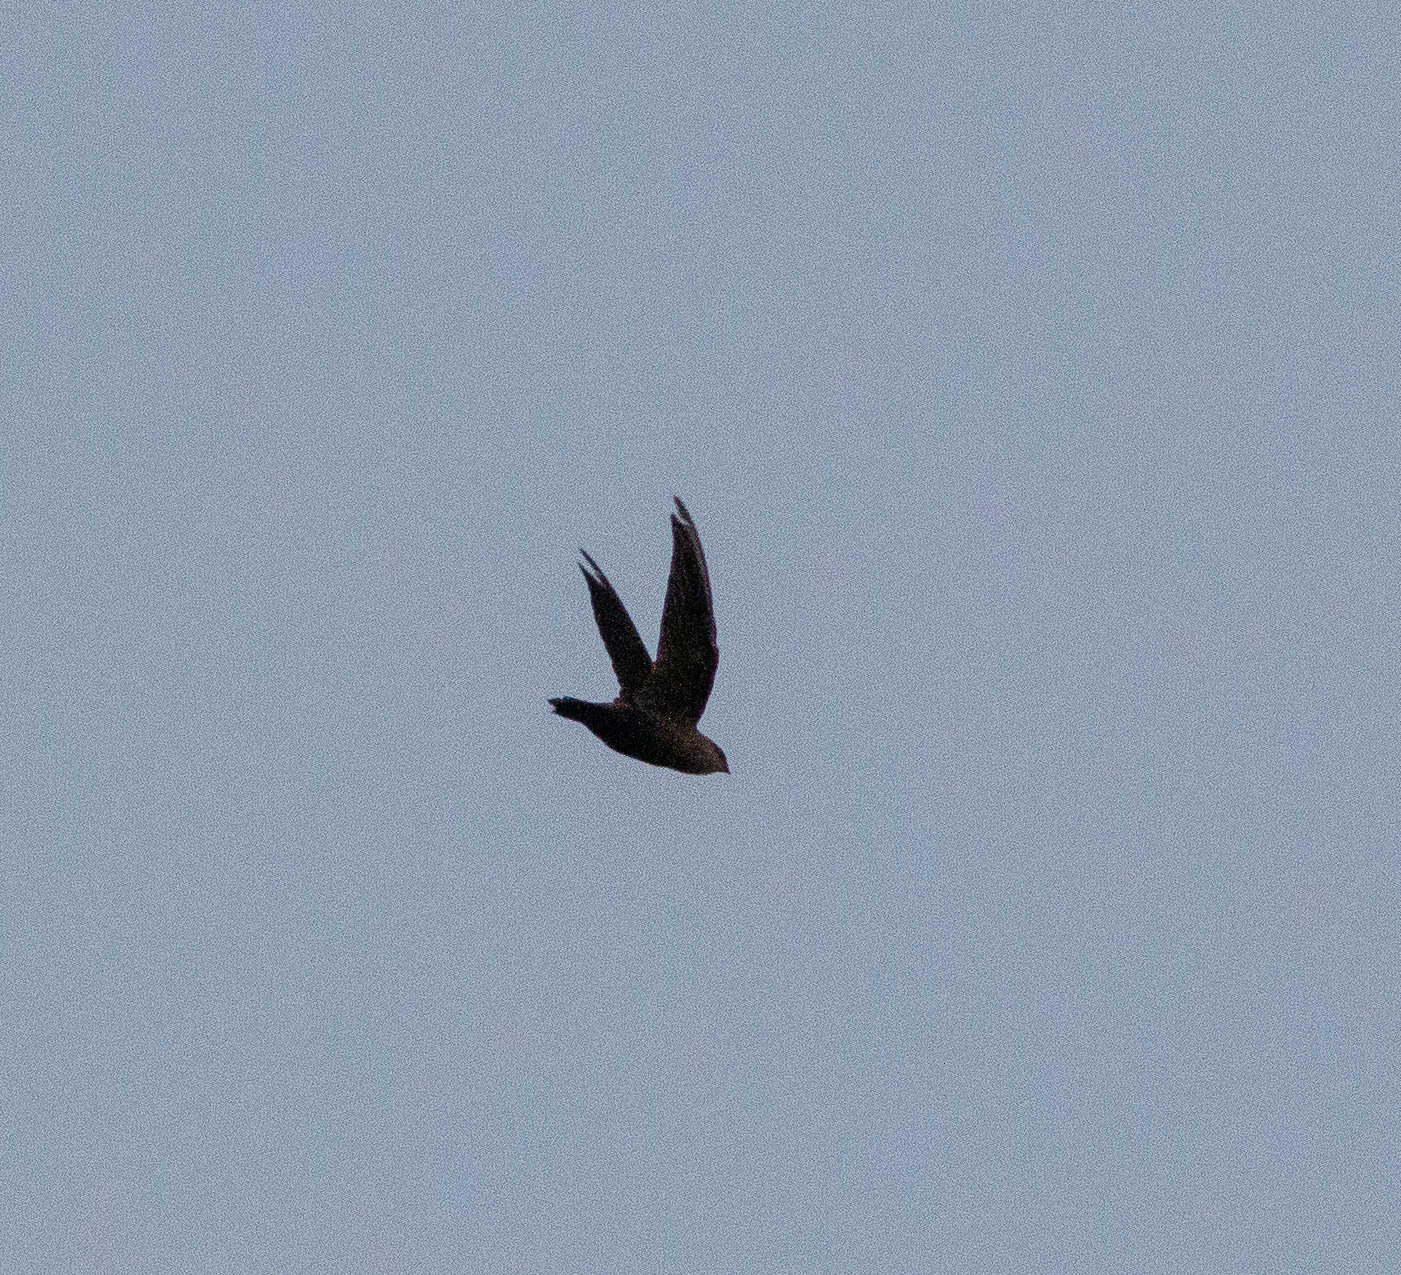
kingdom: Animalia
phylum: Chordata
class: Aves
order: Apodiformes
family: Apodidae
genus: Chaetura
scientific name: Chaetura pelagica
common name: Chimney swift
